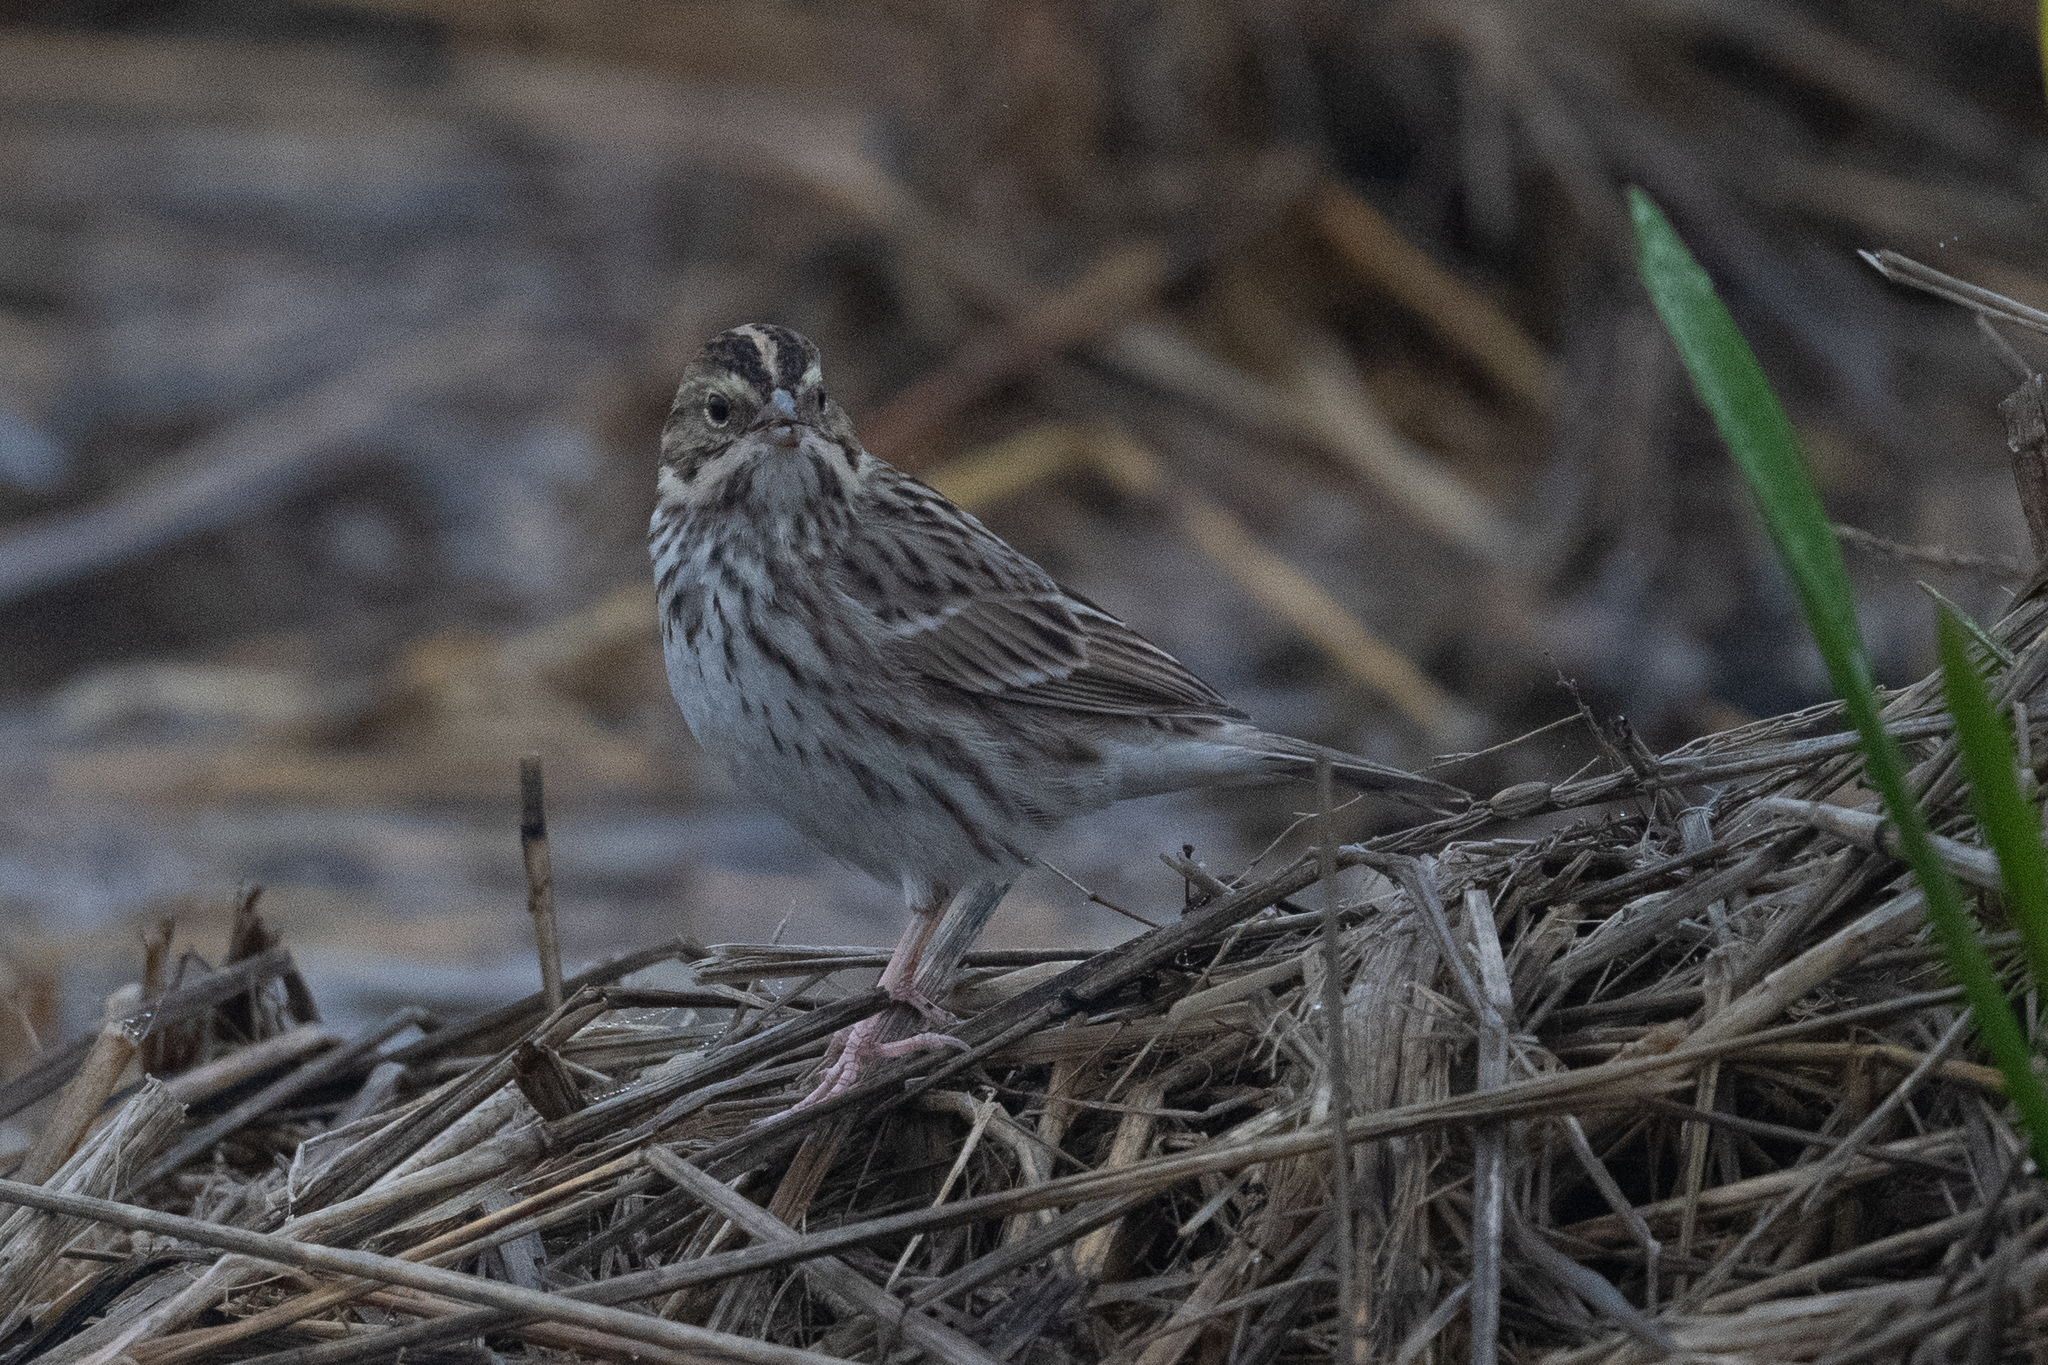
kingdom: Animalia
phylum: Chordata
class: Aves
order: Passeriformes
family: Passerellidae
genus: Passerculus
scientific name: Passerculus sandwichensis
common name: Savannah sparrow
